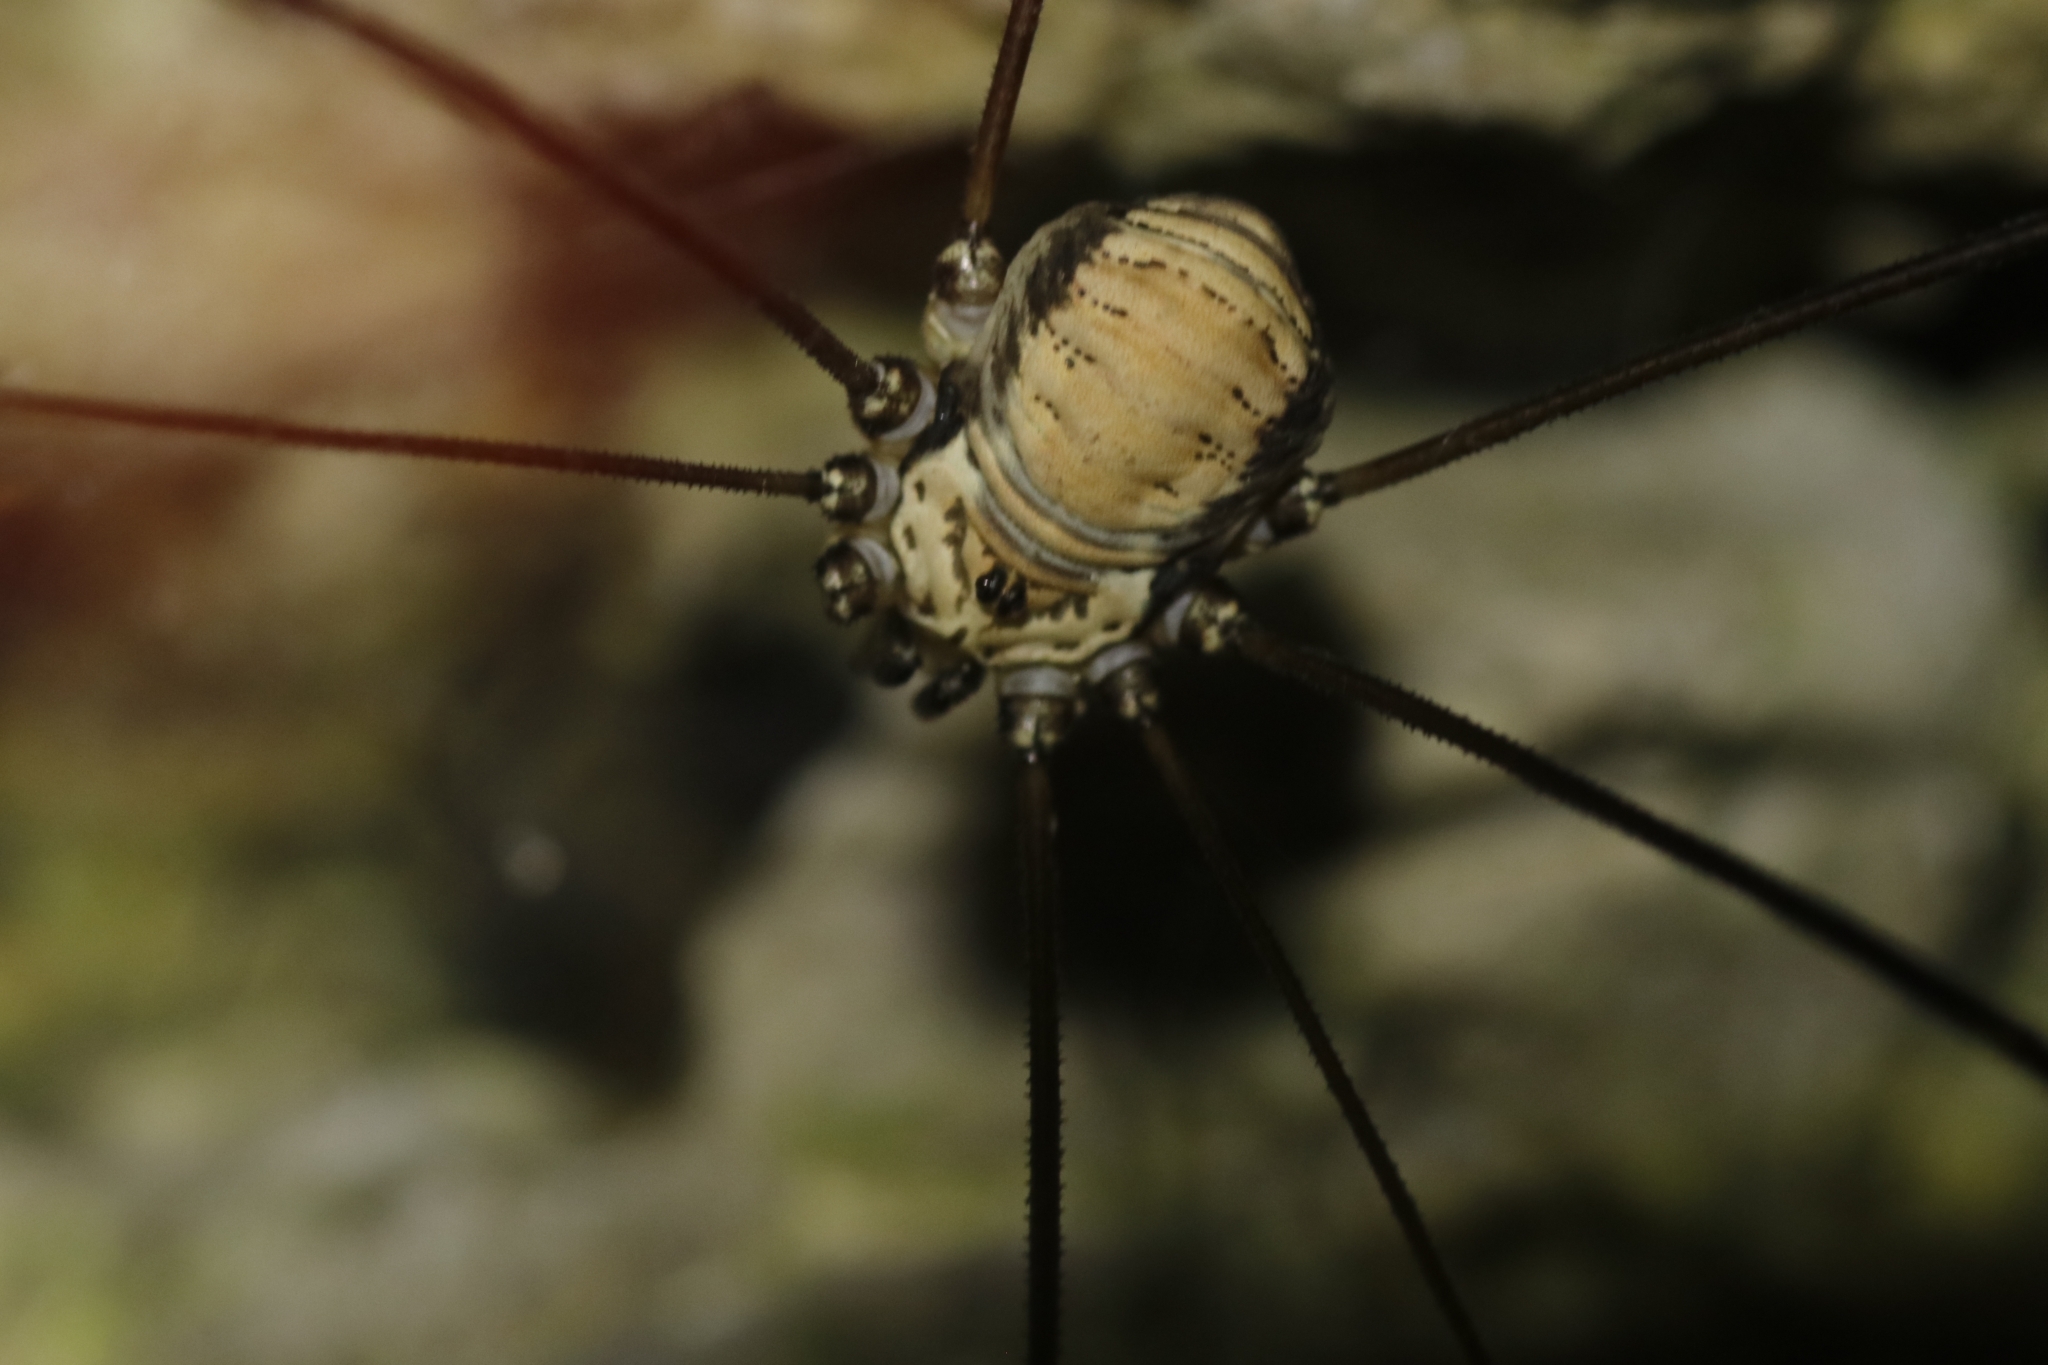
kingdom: Animalia
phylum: Arthropoda
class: Arachnida
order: Opiliones
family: Sclerosomatidae
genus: Leiobunum
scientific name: Leiobunum limbatum
